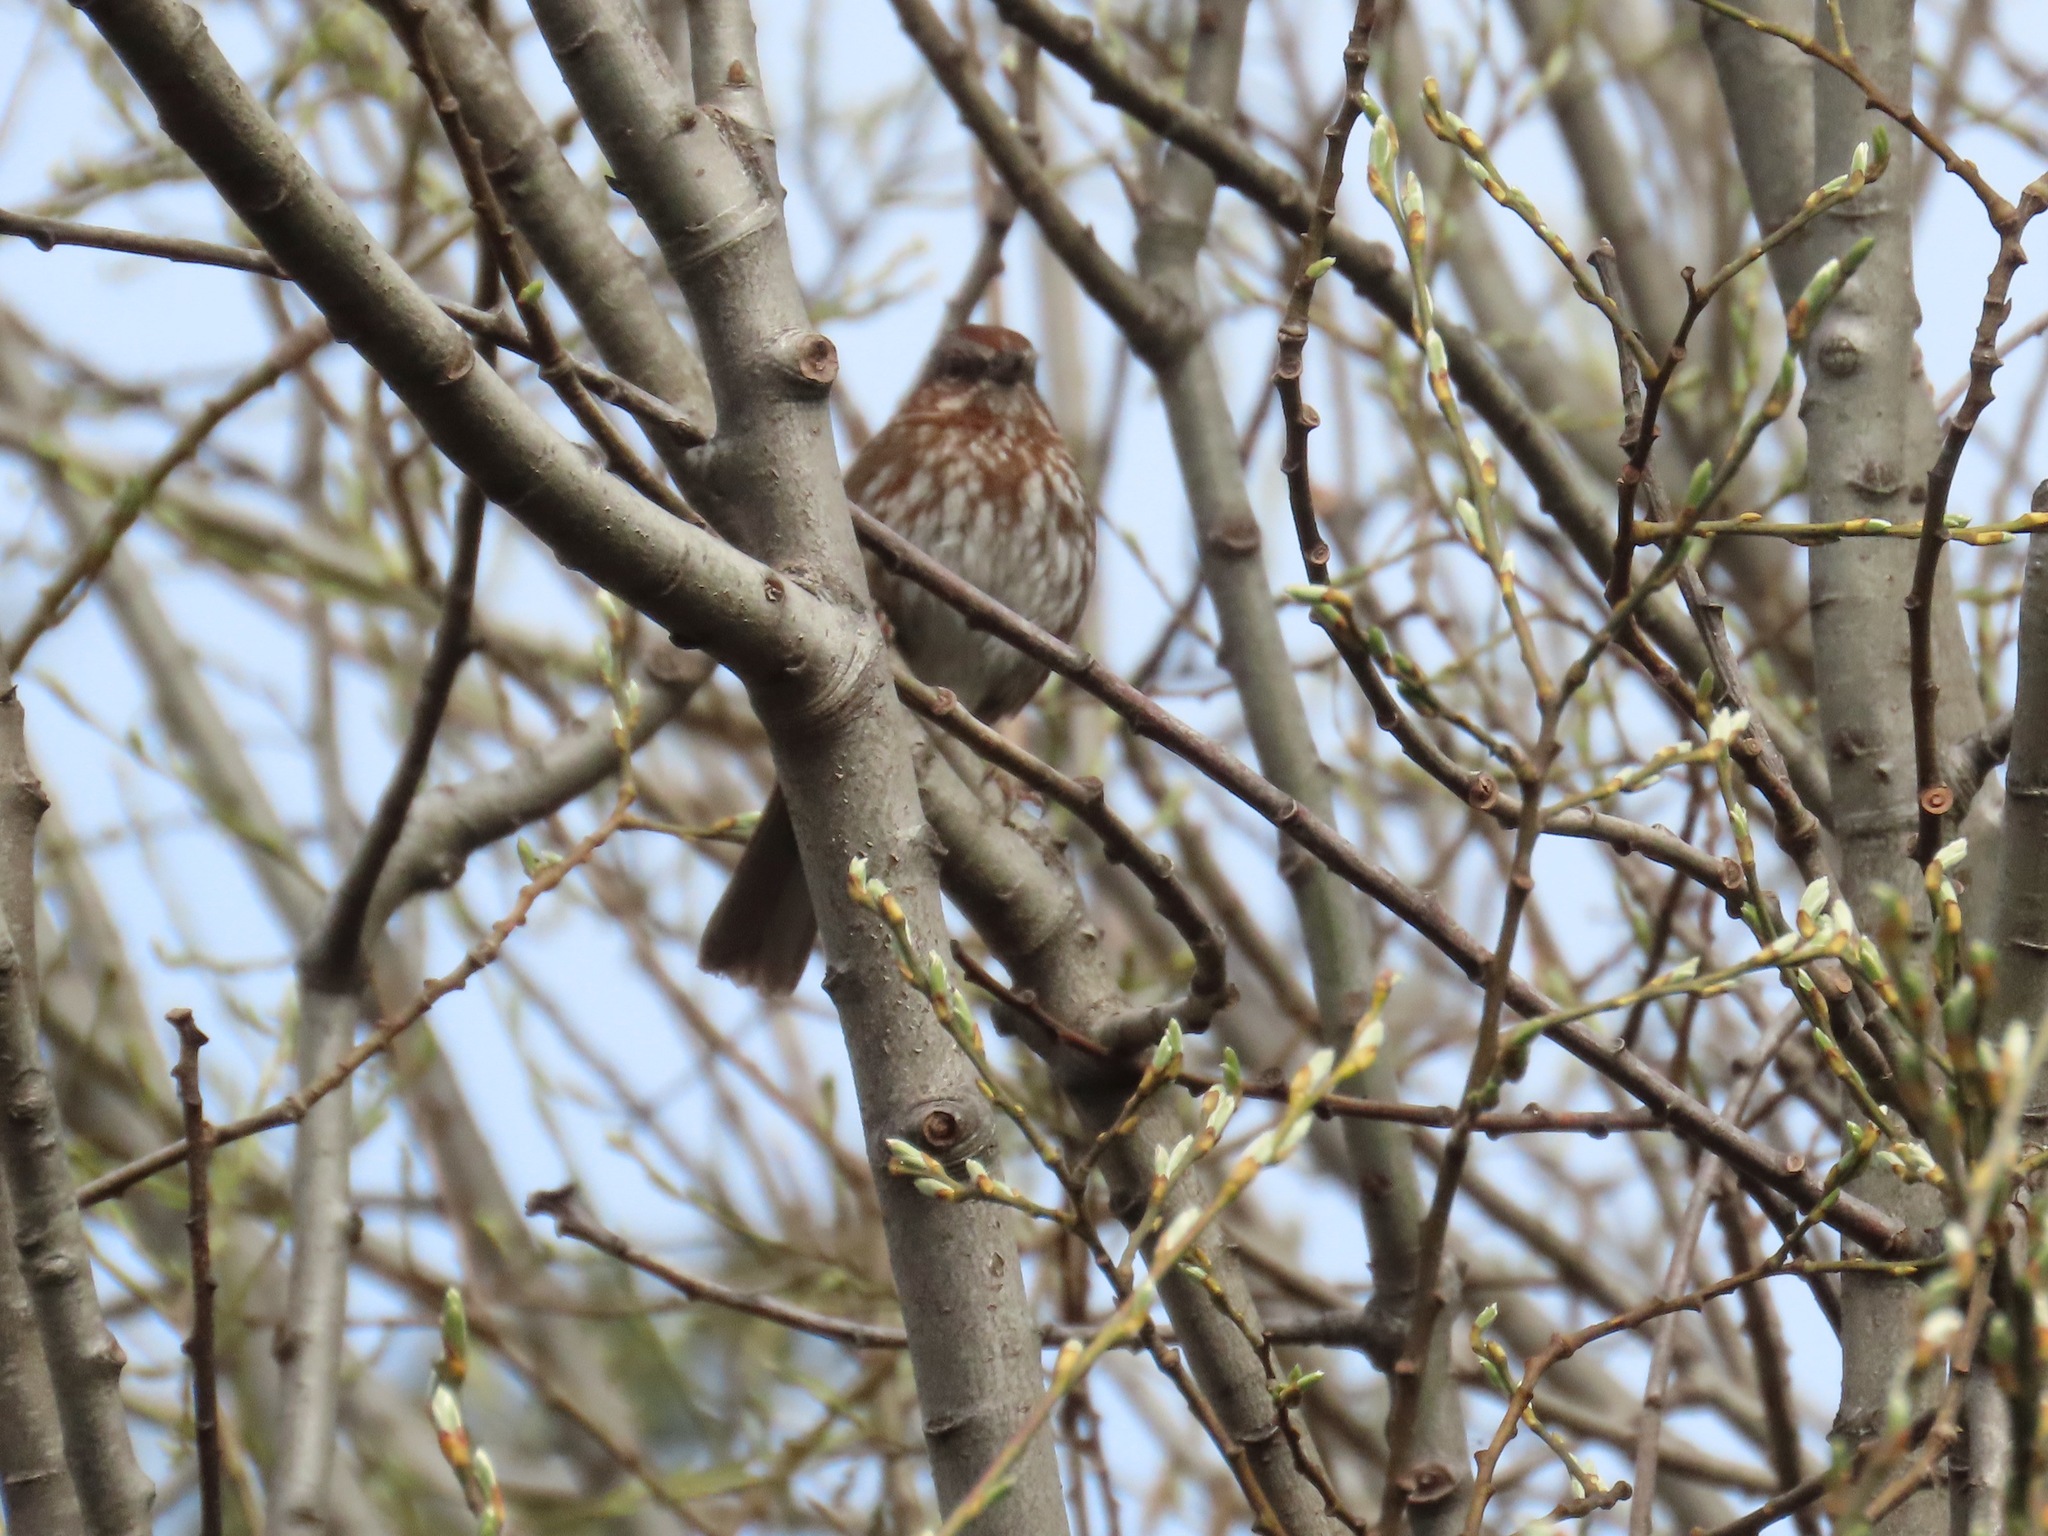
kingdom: Animalia
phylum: Chordata
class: Aves
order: Passeriformes
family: Passerellidae
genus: Melospiza
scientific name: Melospiza melodia
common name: Song sparrow
